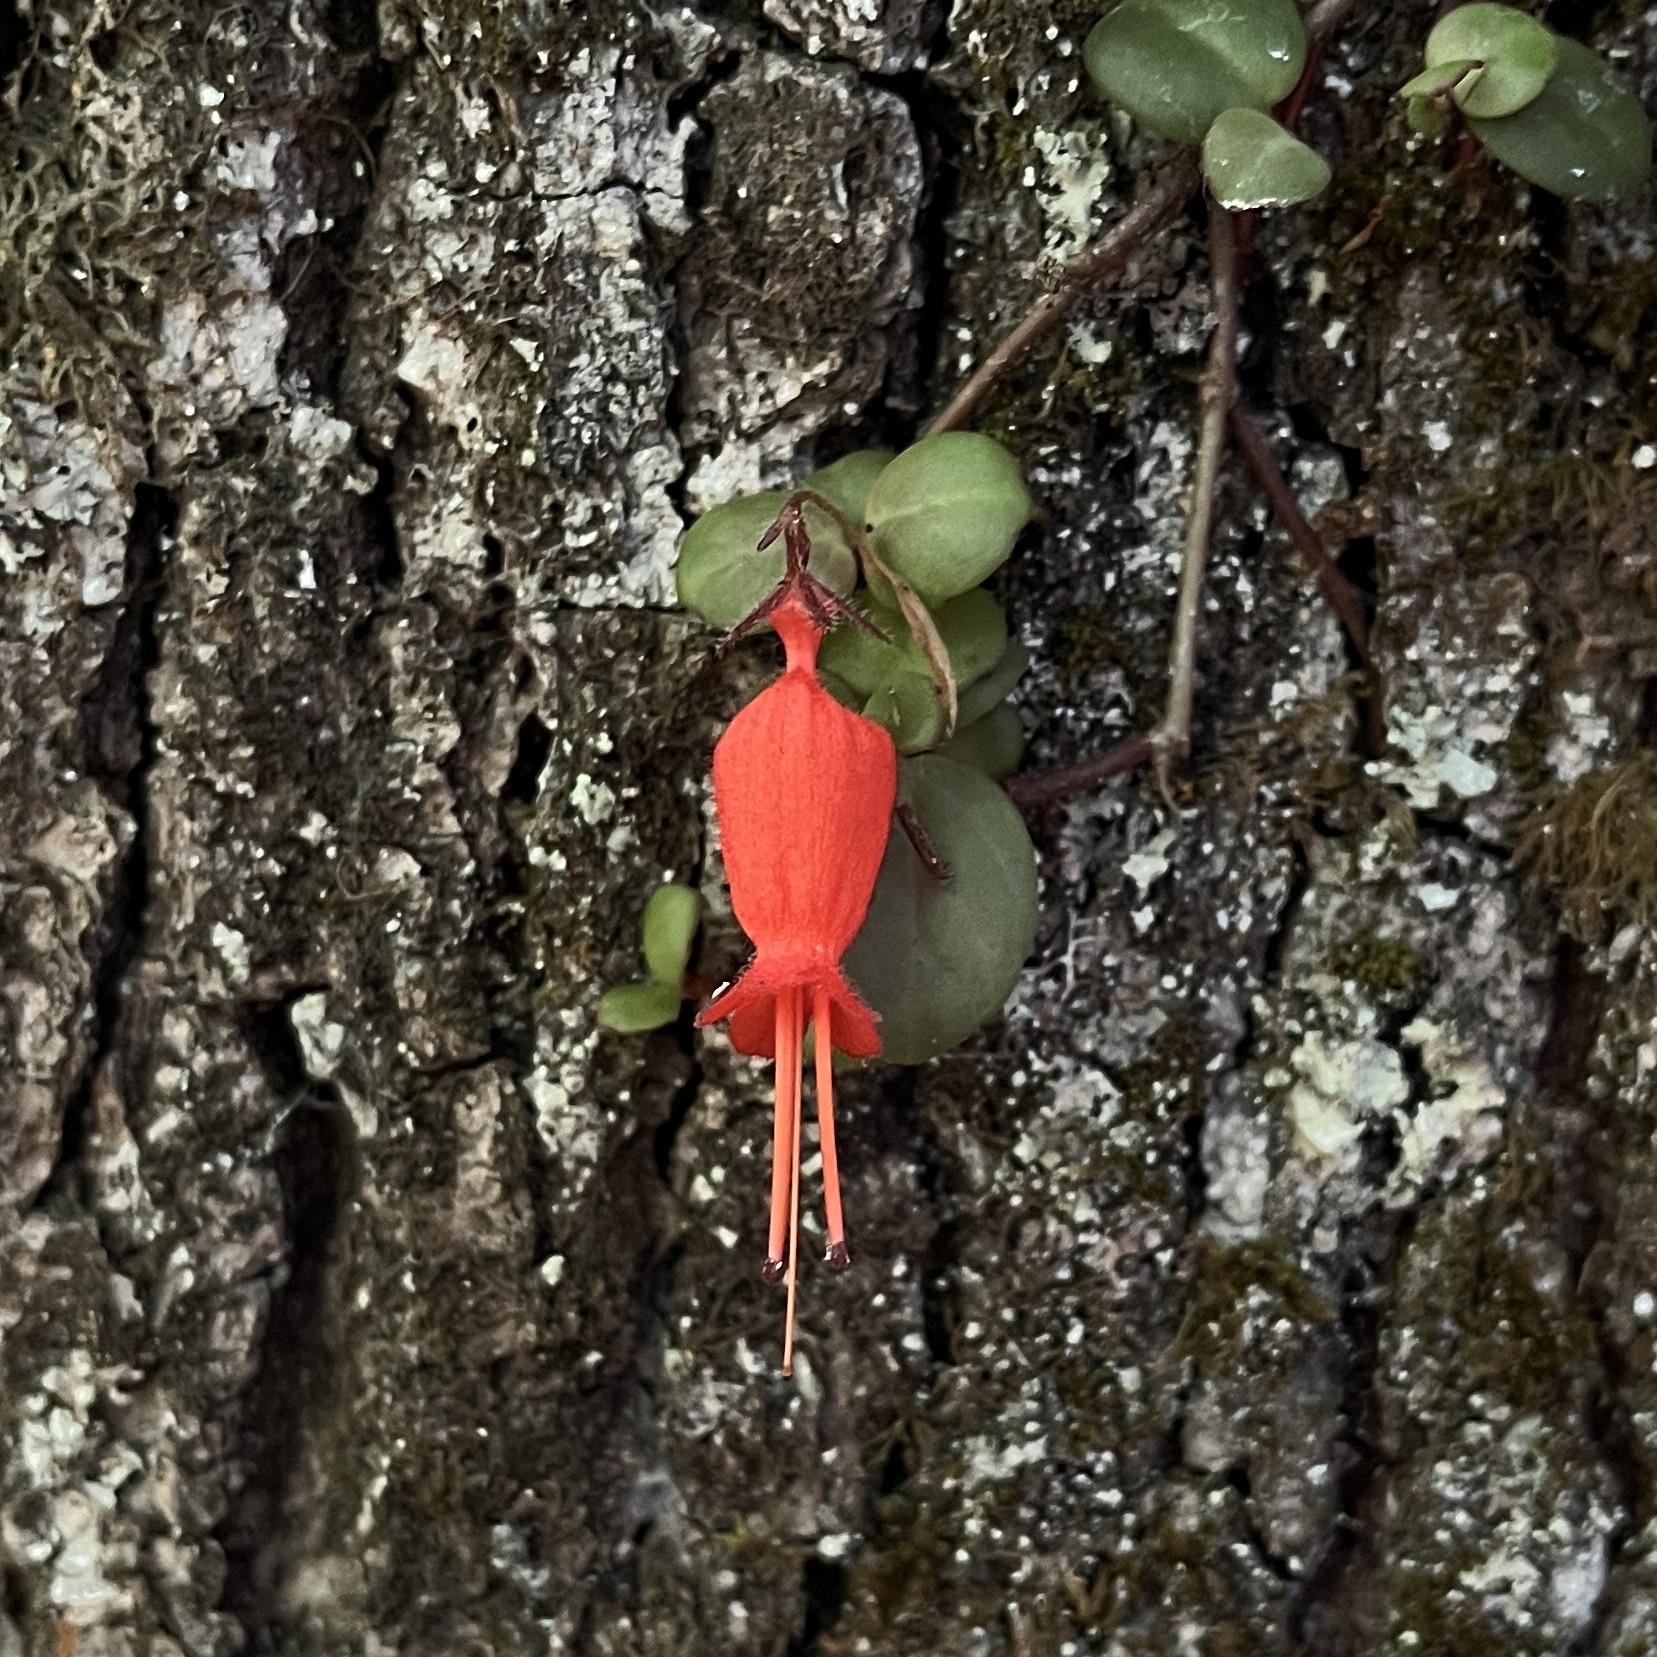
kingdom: Plantae
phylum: Tracheophyta
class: Magnoliopsida
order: Lamiales
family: Gesneriaceae
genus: Sarmienta
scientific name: Sarmienta scandens
